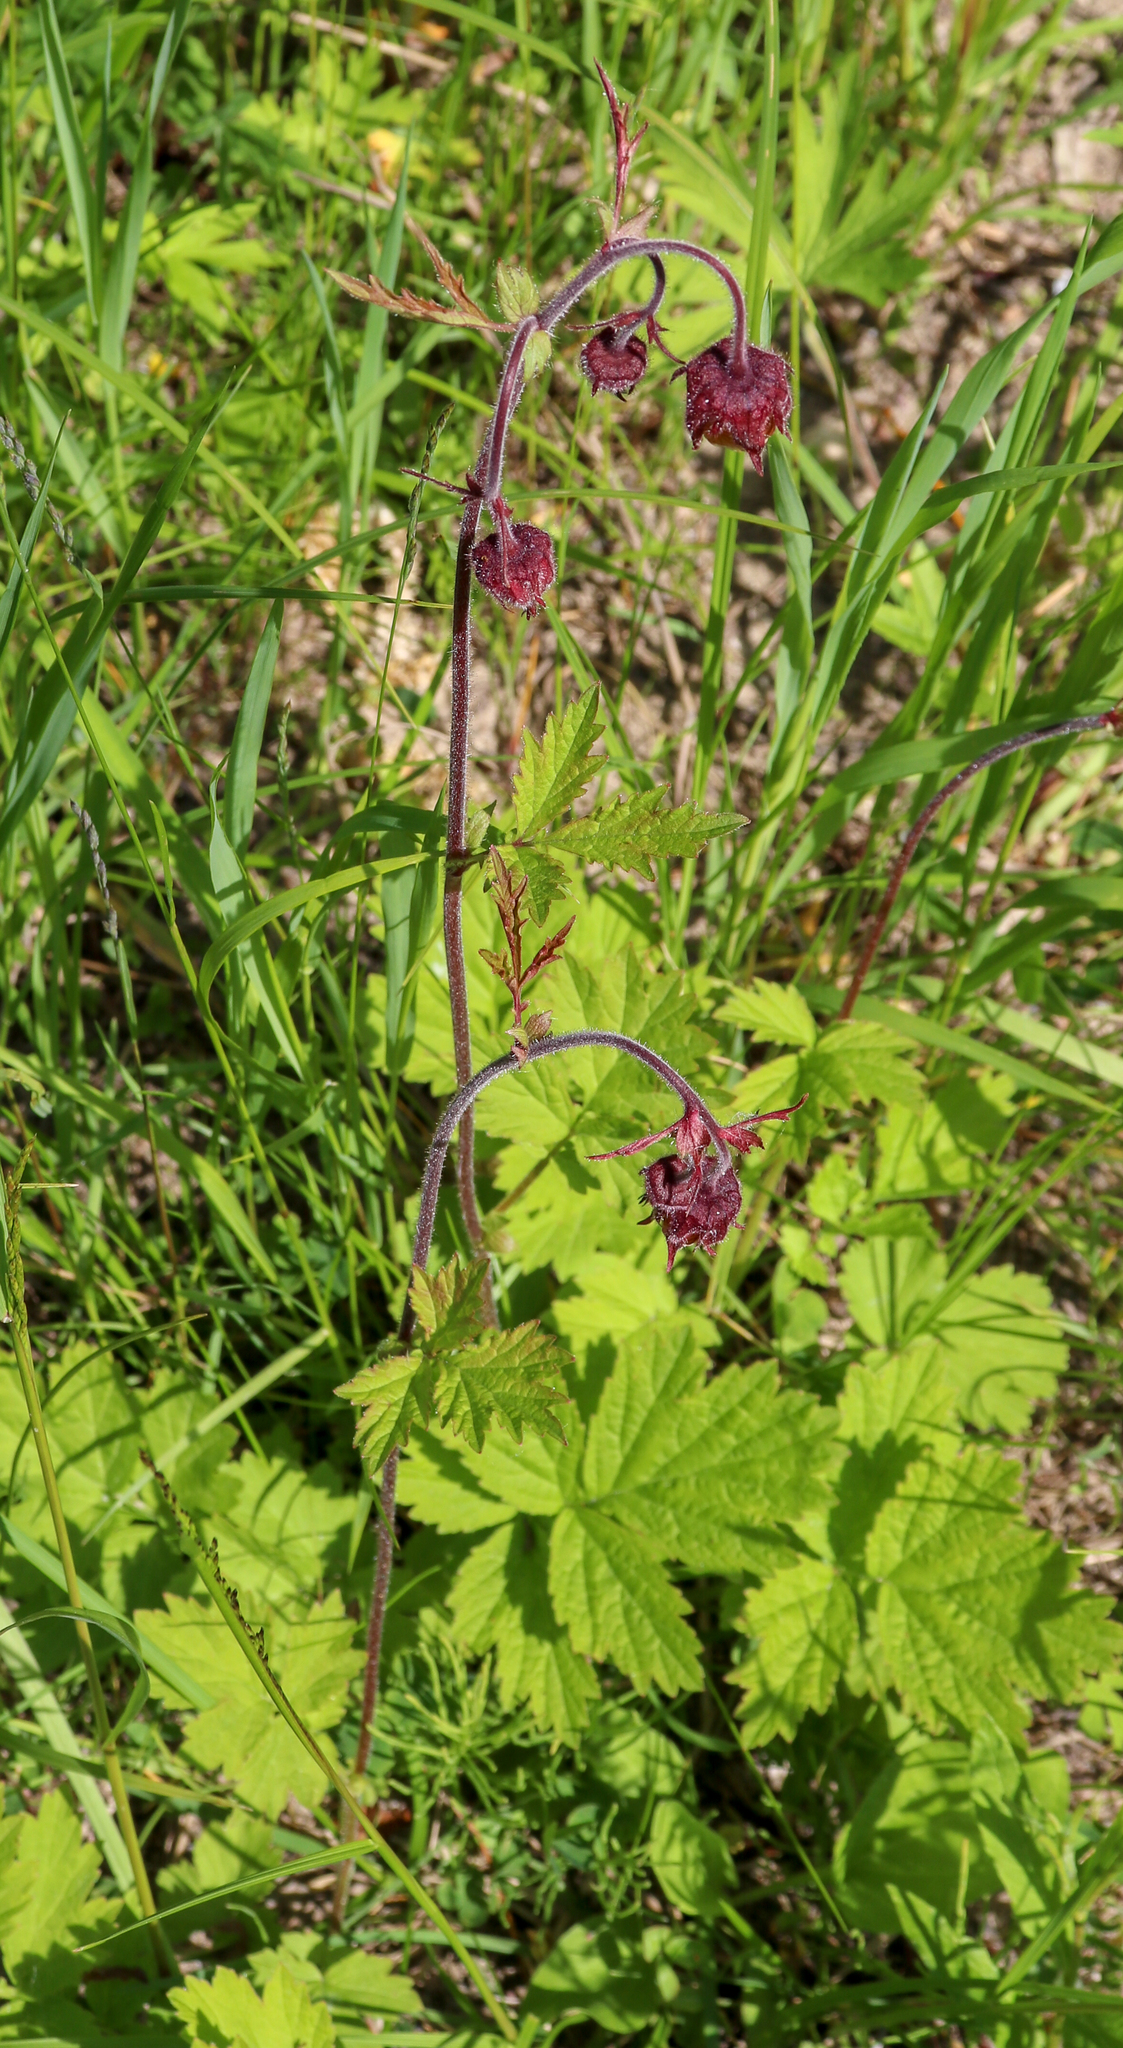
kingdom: Plantae
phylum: Tracheophyta
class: Magnoliopsida
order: Rosales
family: Rosaceae
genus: Geum
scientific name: Geum rivale
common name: Water avens
